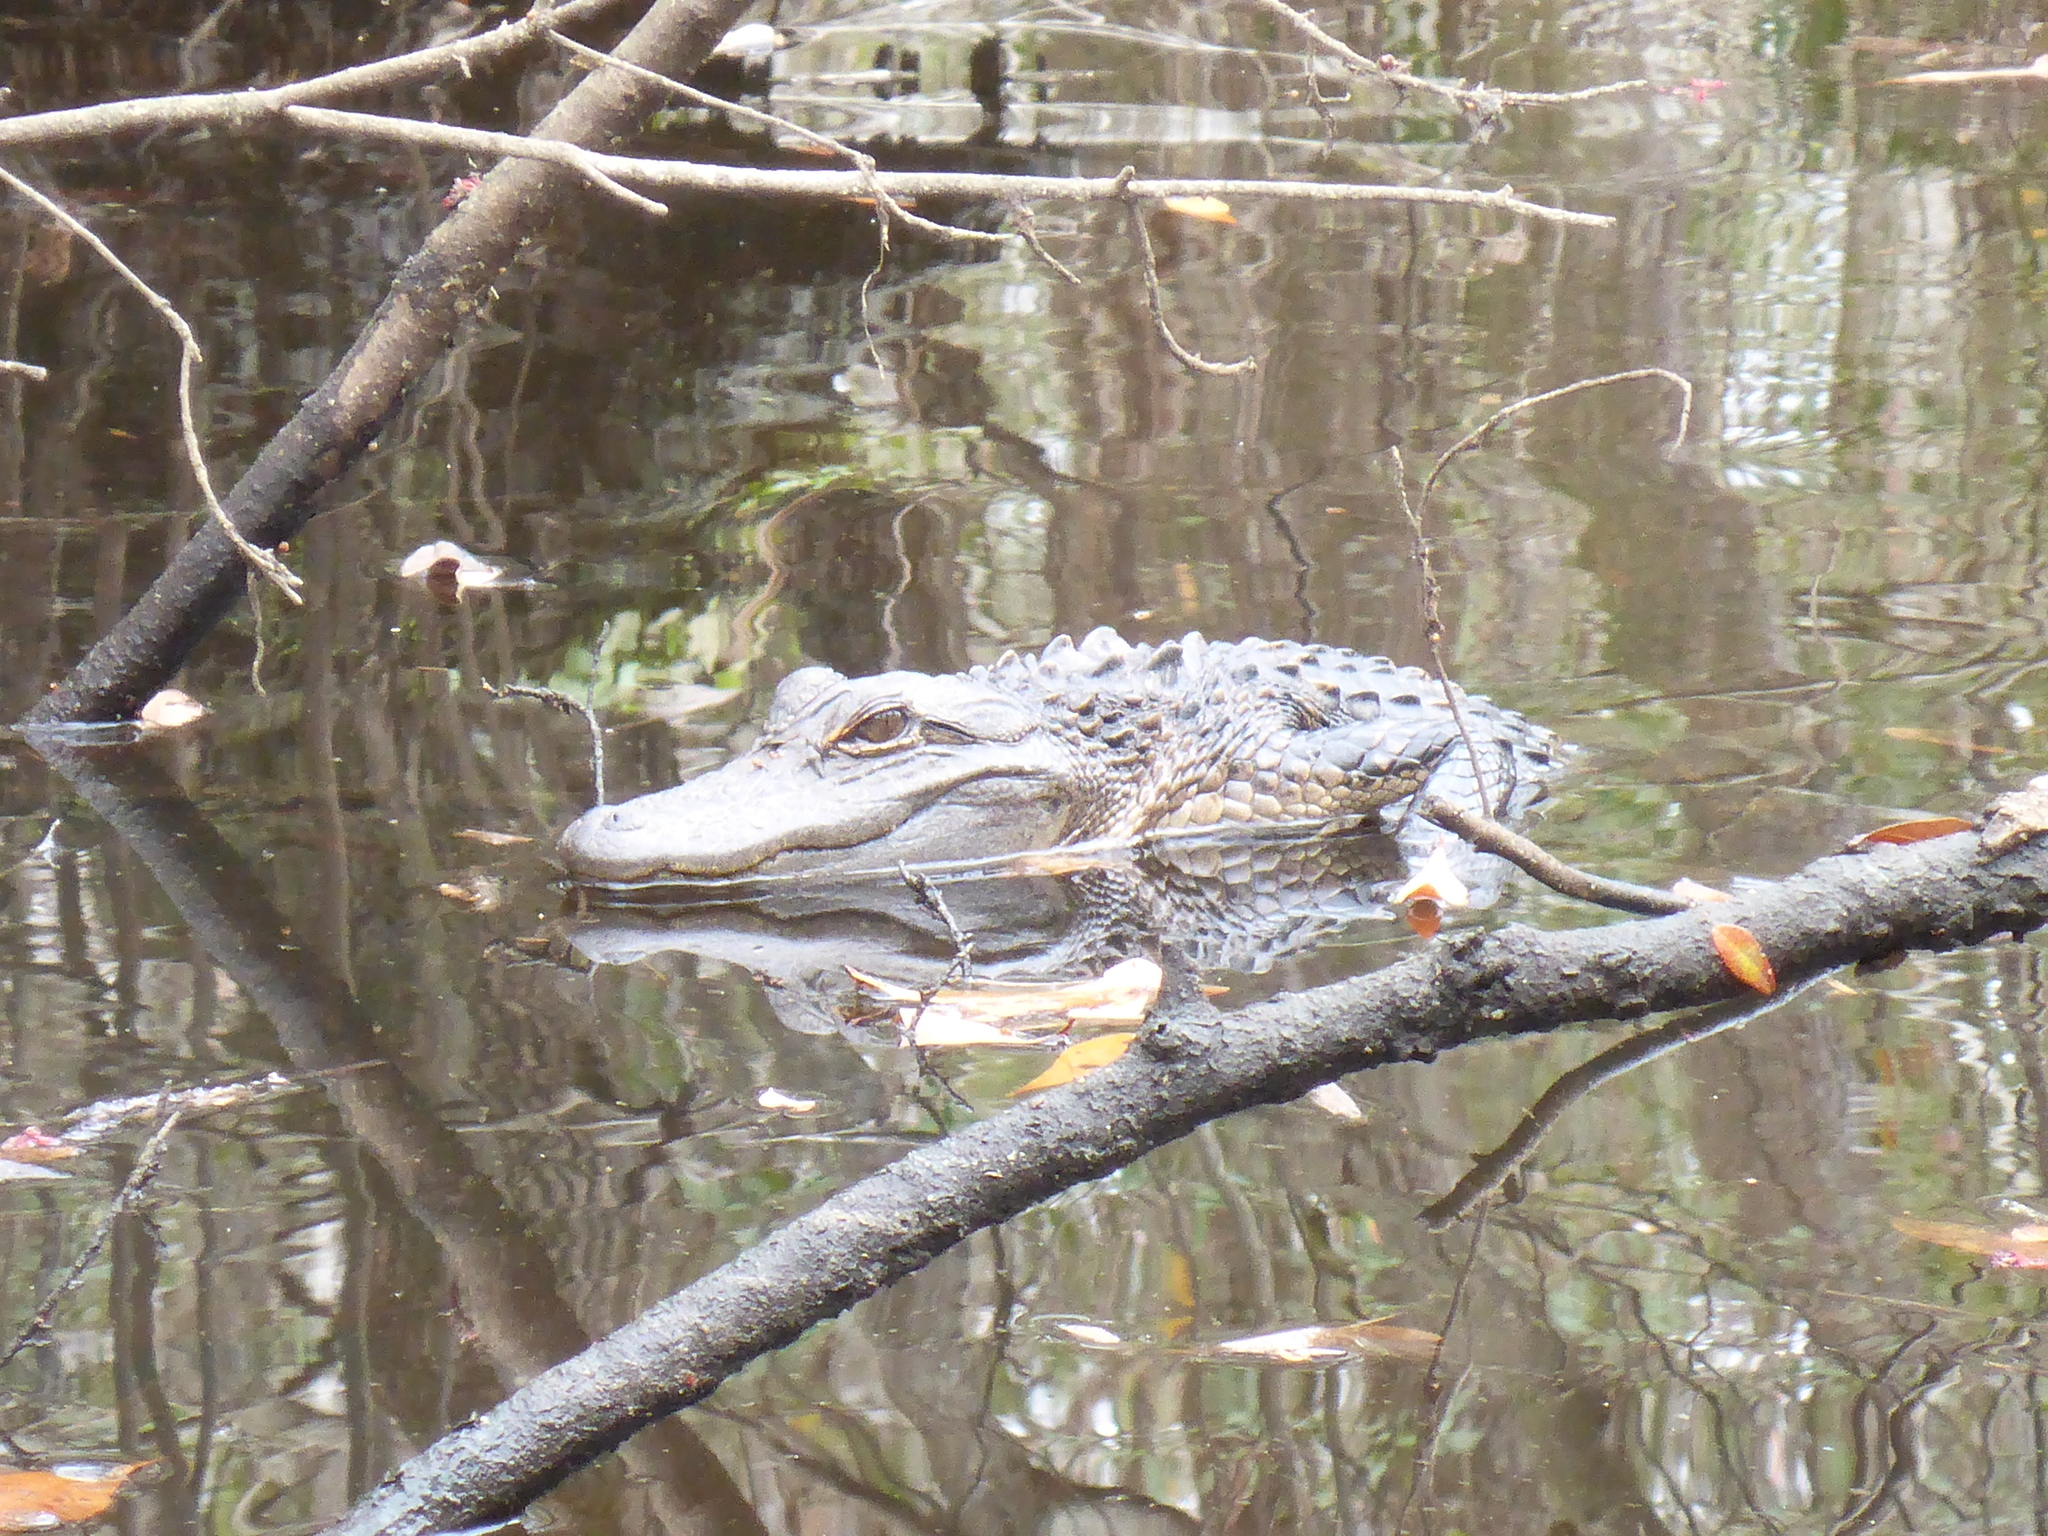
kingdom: Animalia
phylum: Chordata
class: Crocodylia
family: Alligatoridae
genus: Alligator
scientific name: Alligator mississippiensis
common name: American alligator
